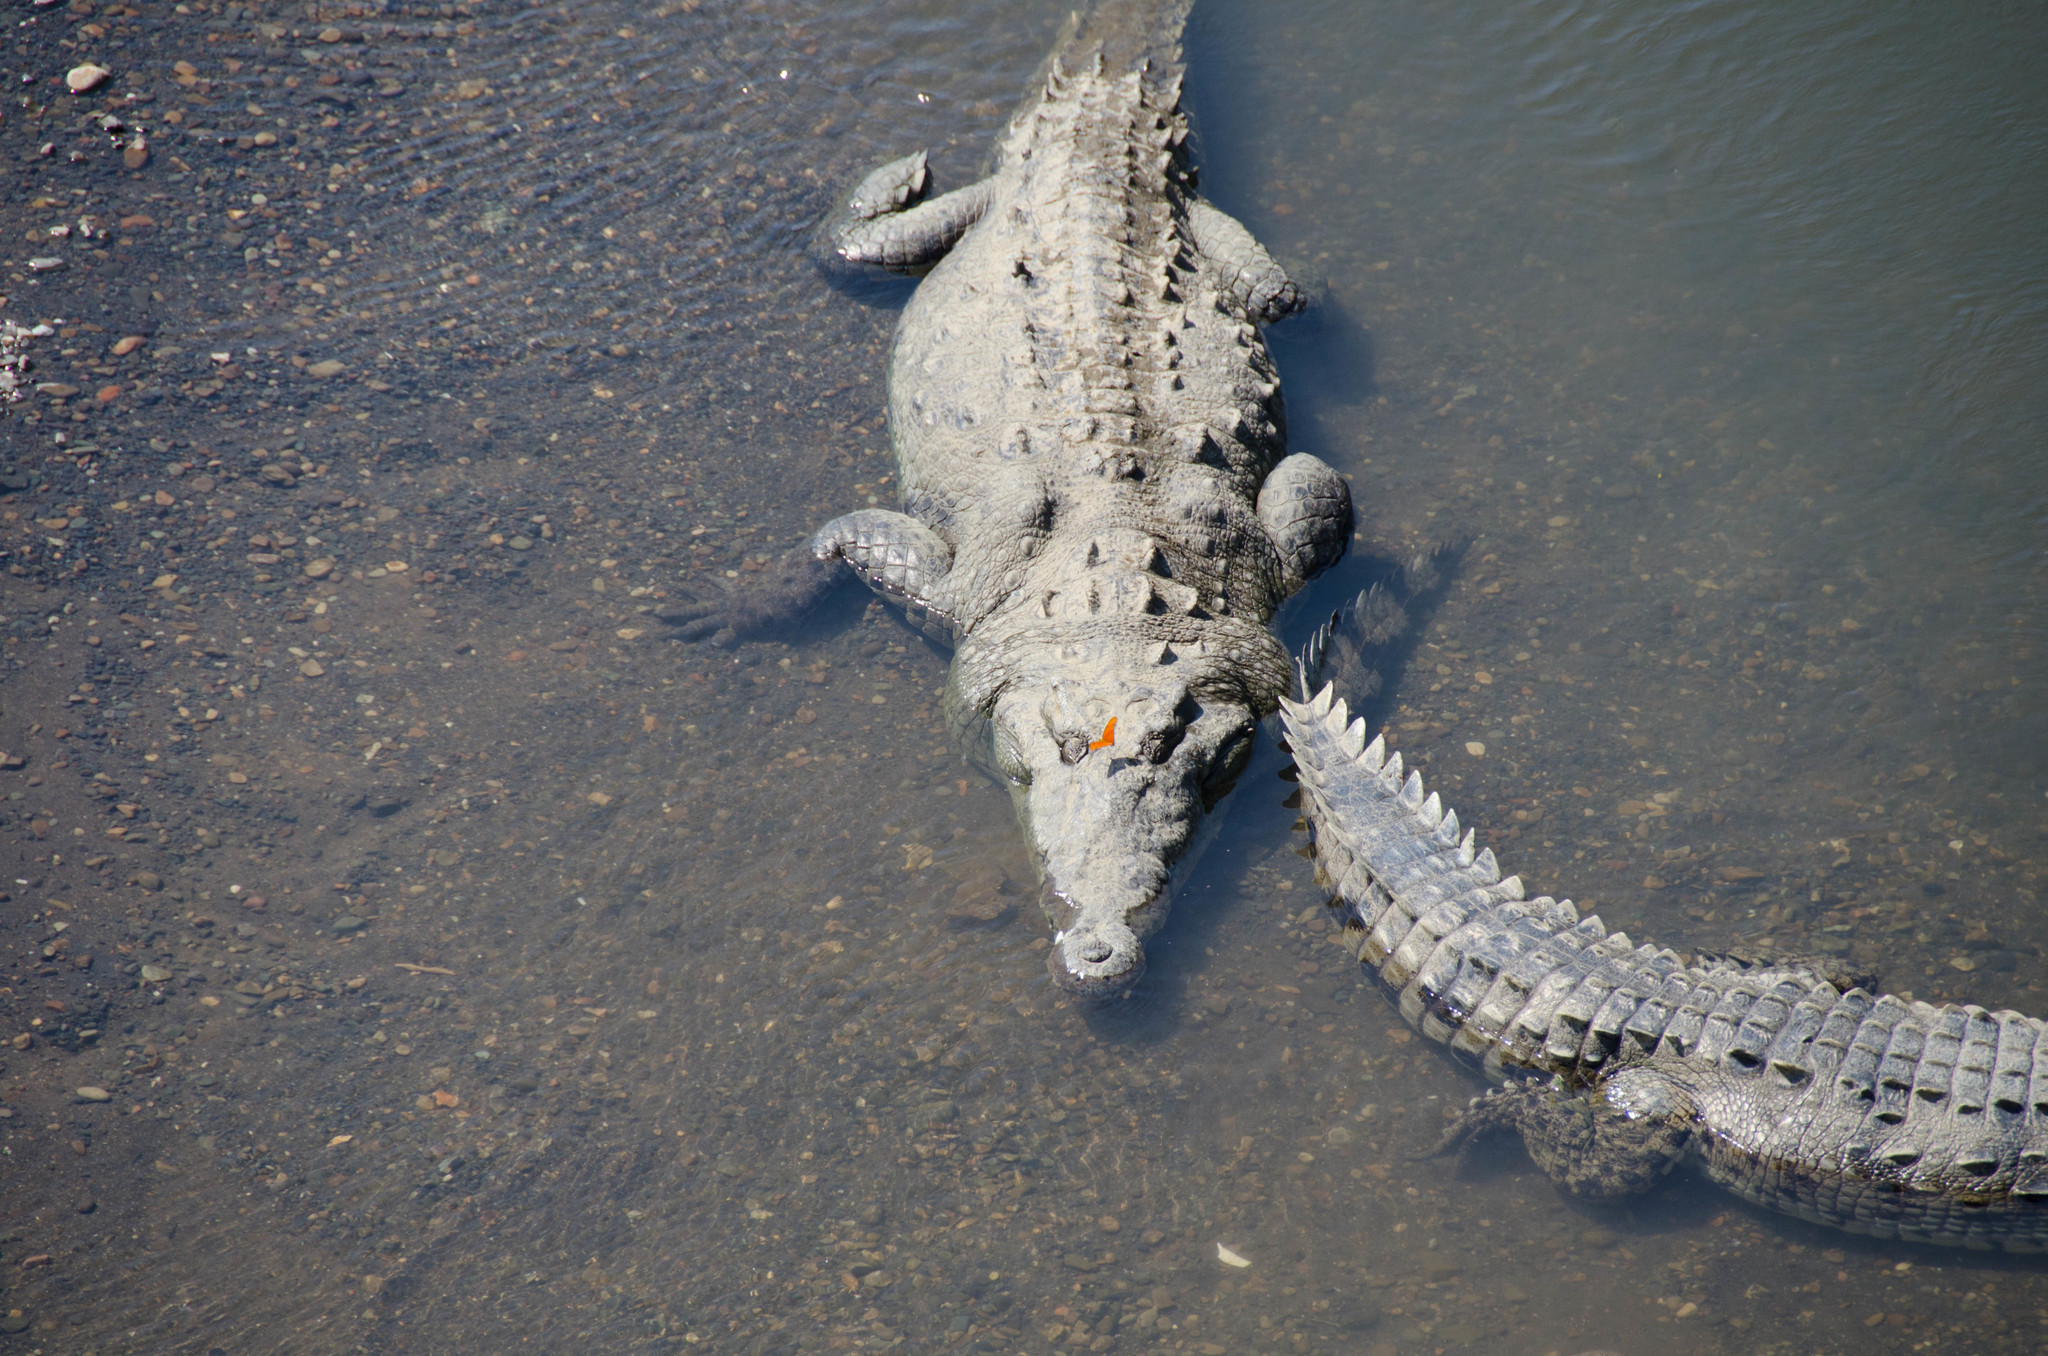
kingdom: Animalia
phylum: Chordata
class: Crocodylia
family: Crocodylidae
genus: Crocodylus
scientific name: Crocodylus acutus
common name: American crocodile
